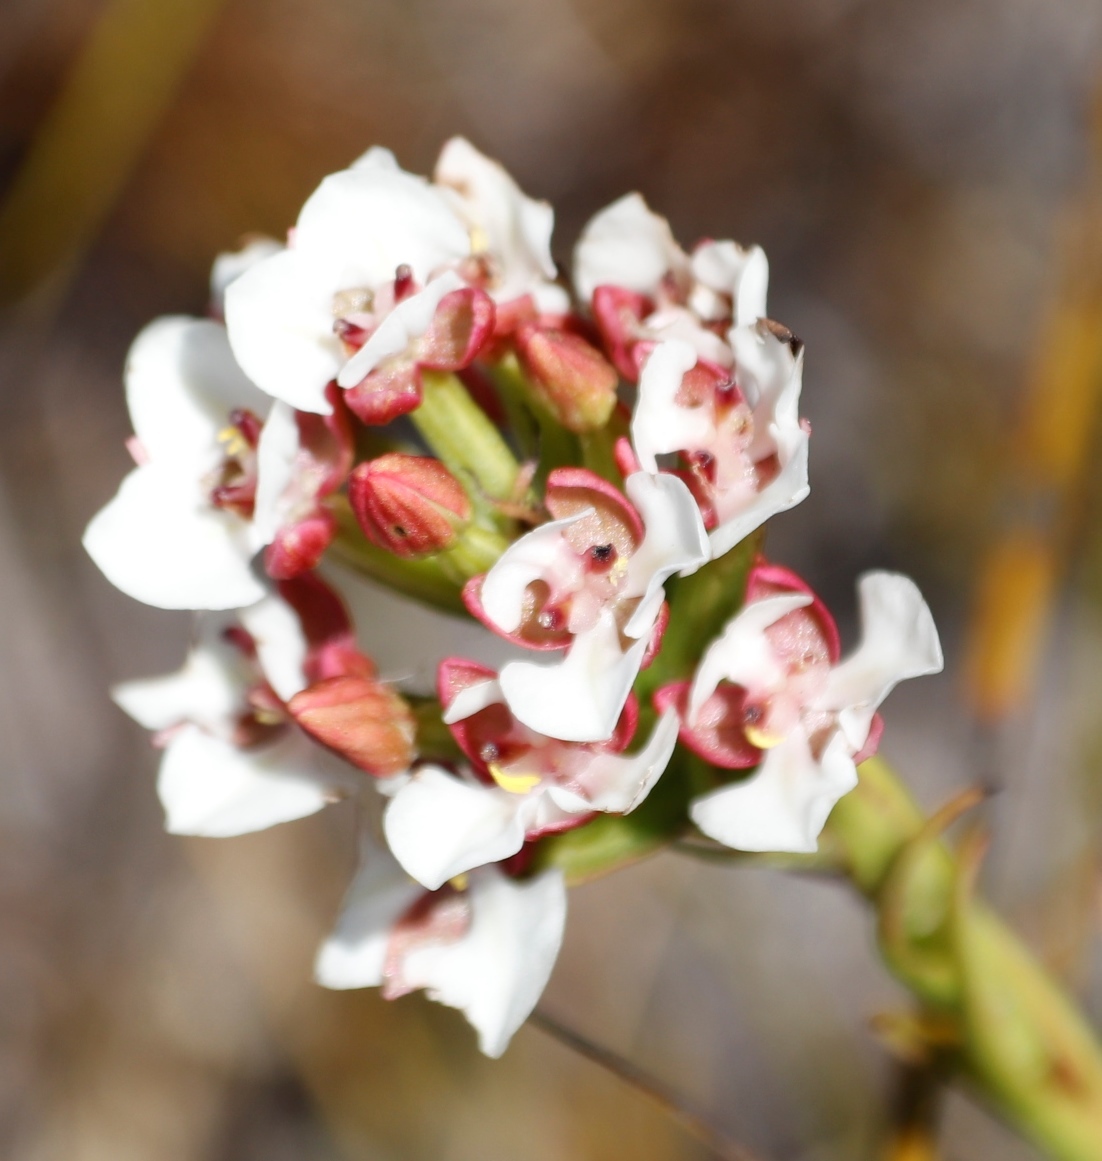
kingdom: Plantae
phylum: Tracheophyta
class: Liliopsida
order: Asparagales
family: Orchidaceae
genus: Ceratandra
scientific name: Ceratandra globosa
